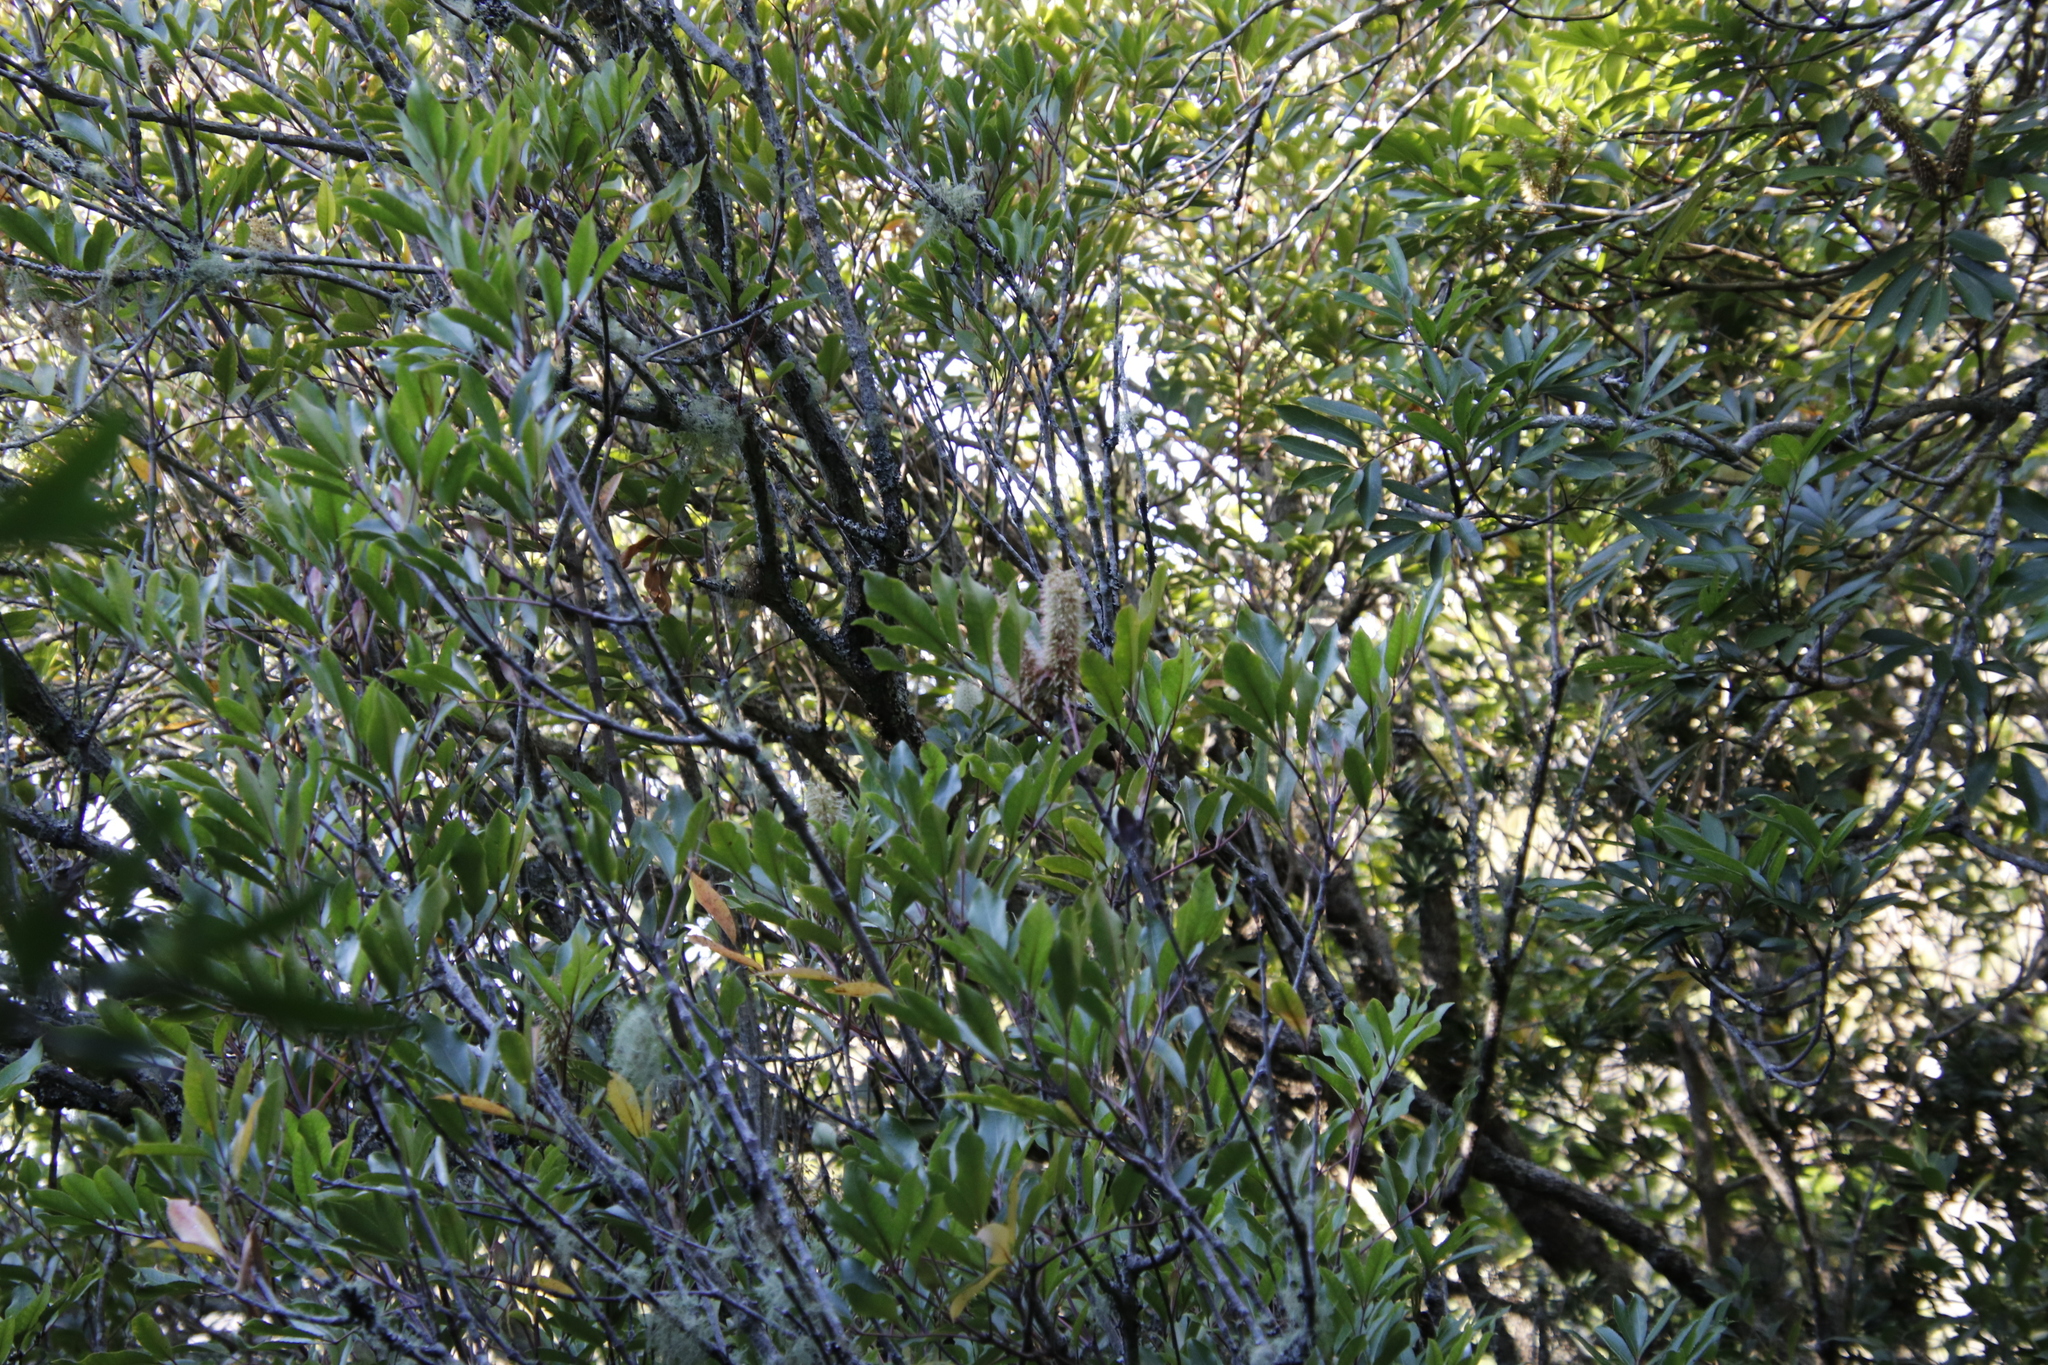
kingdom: Plantae
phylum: Tracheophyta
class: Magnoliopsida
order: Oxalidales
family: Cunoniaceae
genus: Cunonia
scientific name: Cunonia capensis
